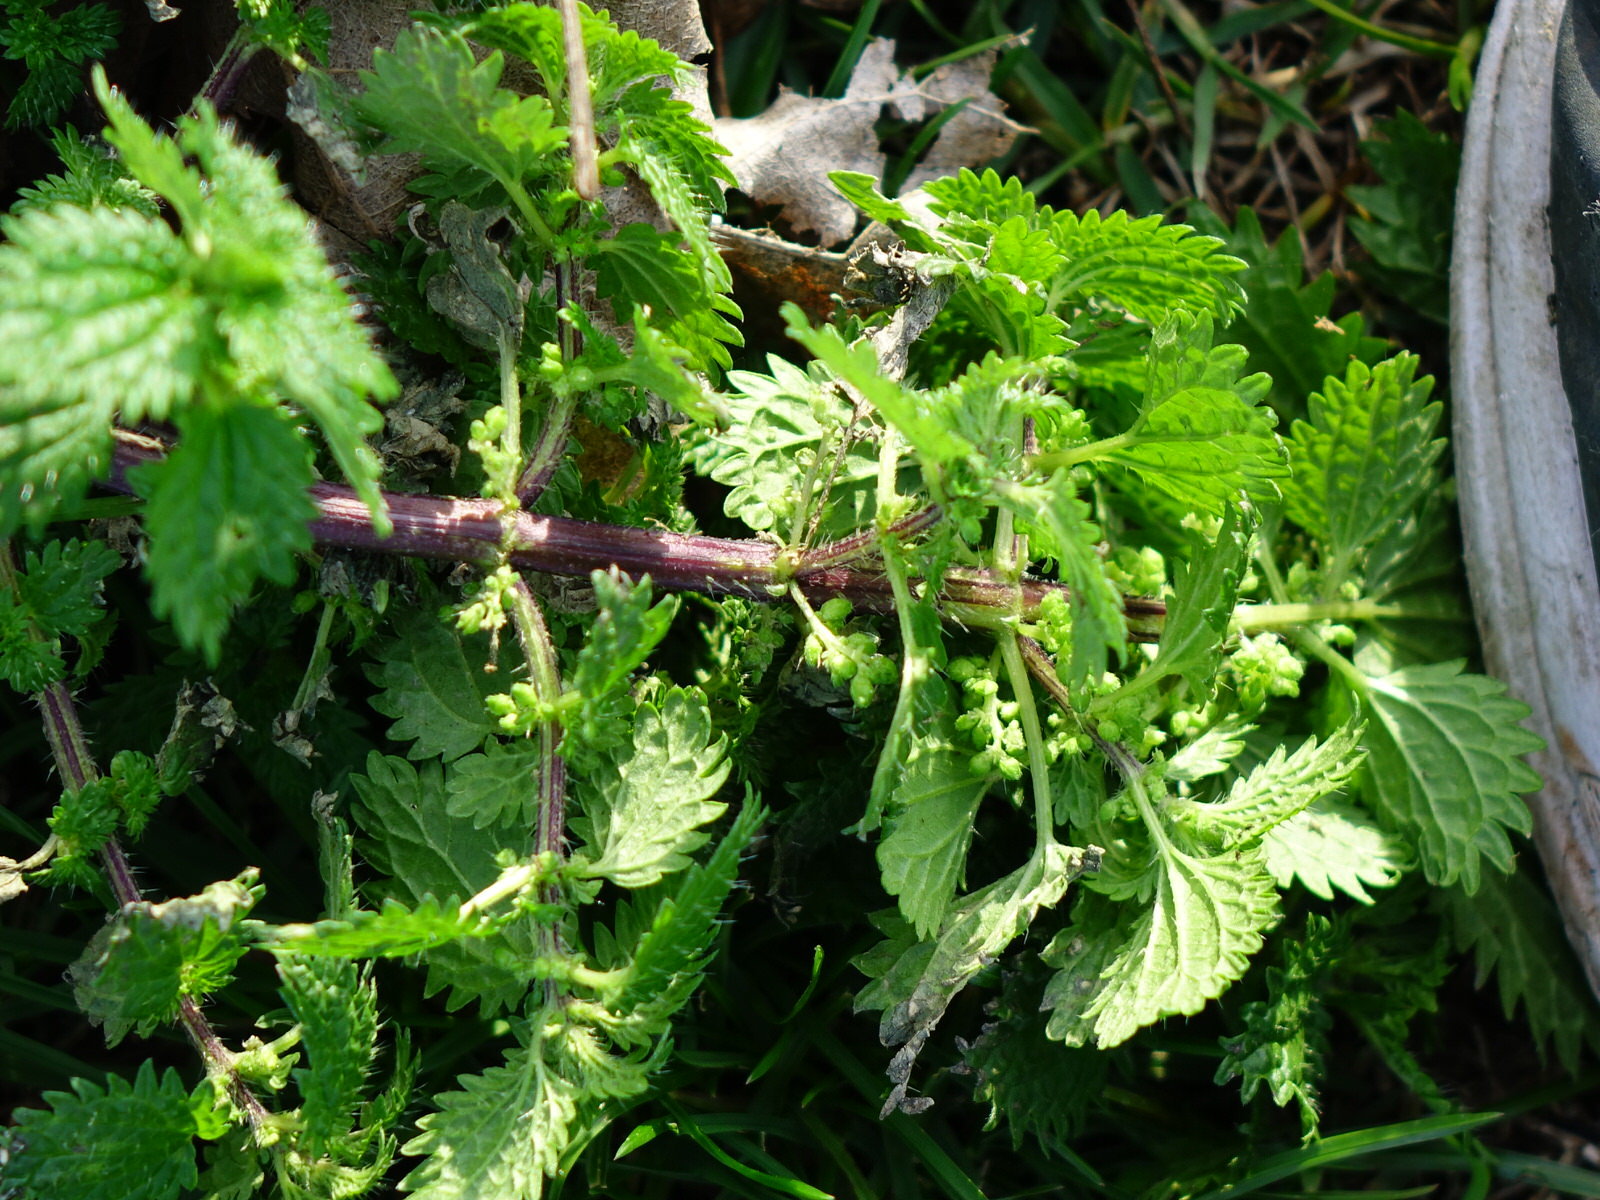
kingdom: Plantae
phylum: Tracheophyta
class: Magnoliopsida
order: Rosales
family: Urticaceae
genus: Urtica
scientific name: Urtica urens
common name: Dwarf nettle
